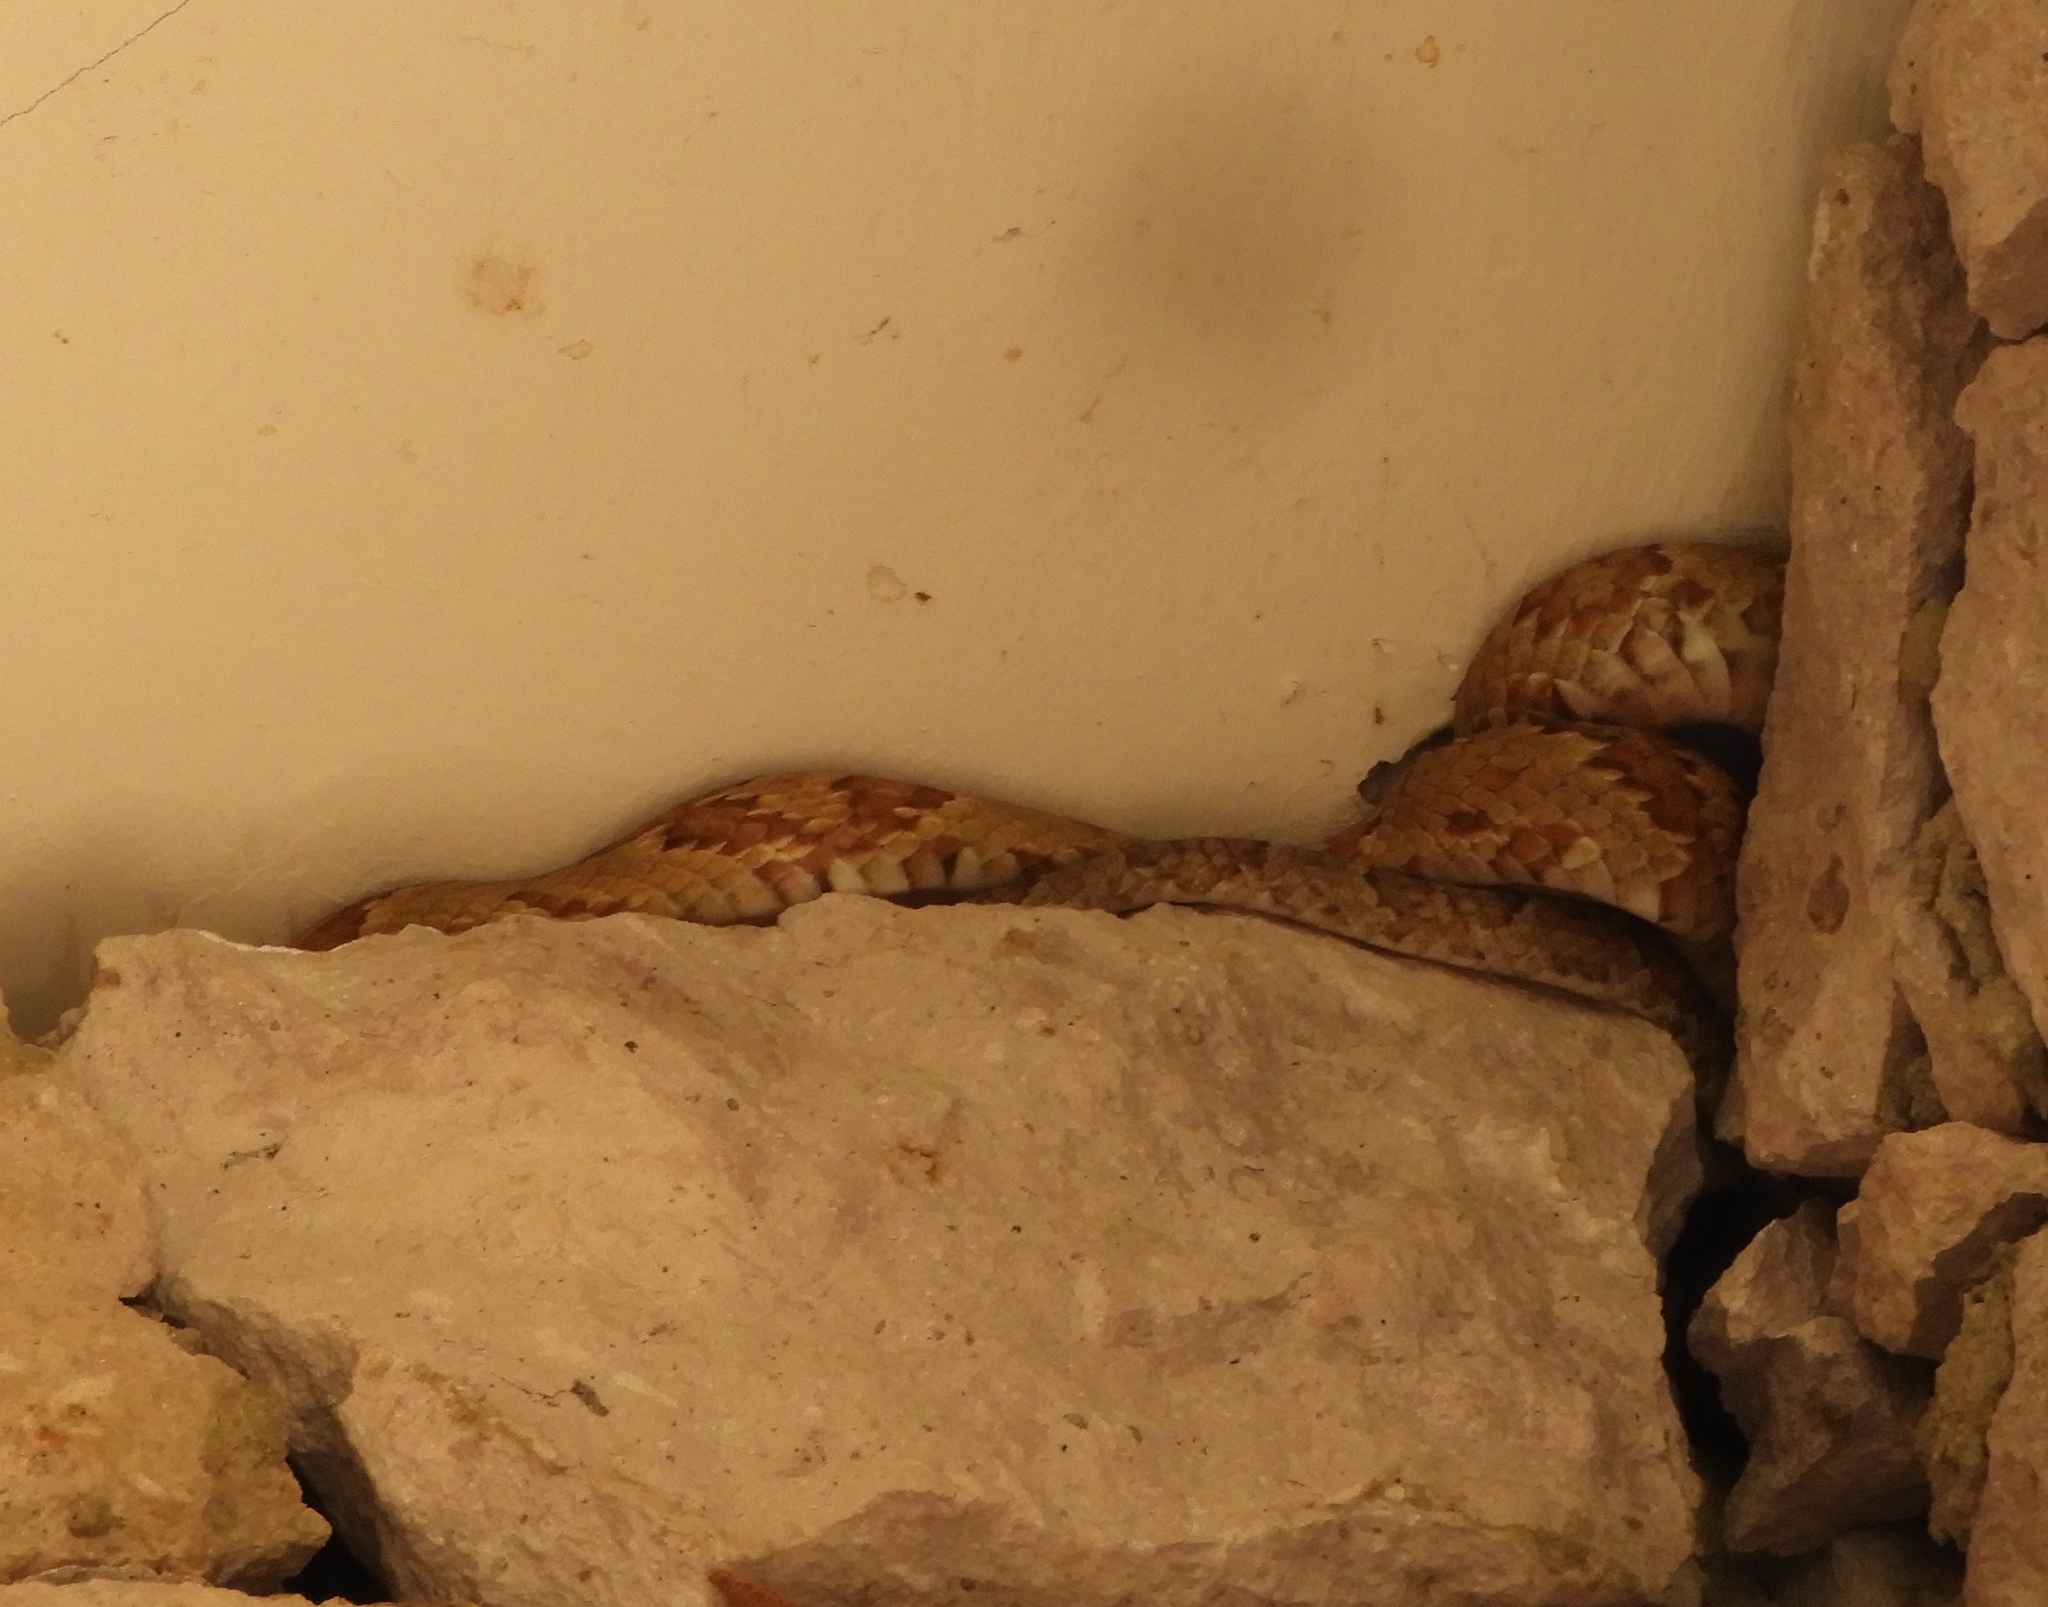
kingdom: Animalia
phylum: Chordata
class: Squamata
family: Colubridae
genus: Trimorphodon
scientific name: Trimorphodon paucimaculatus
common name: Sinaloan lyresnake
